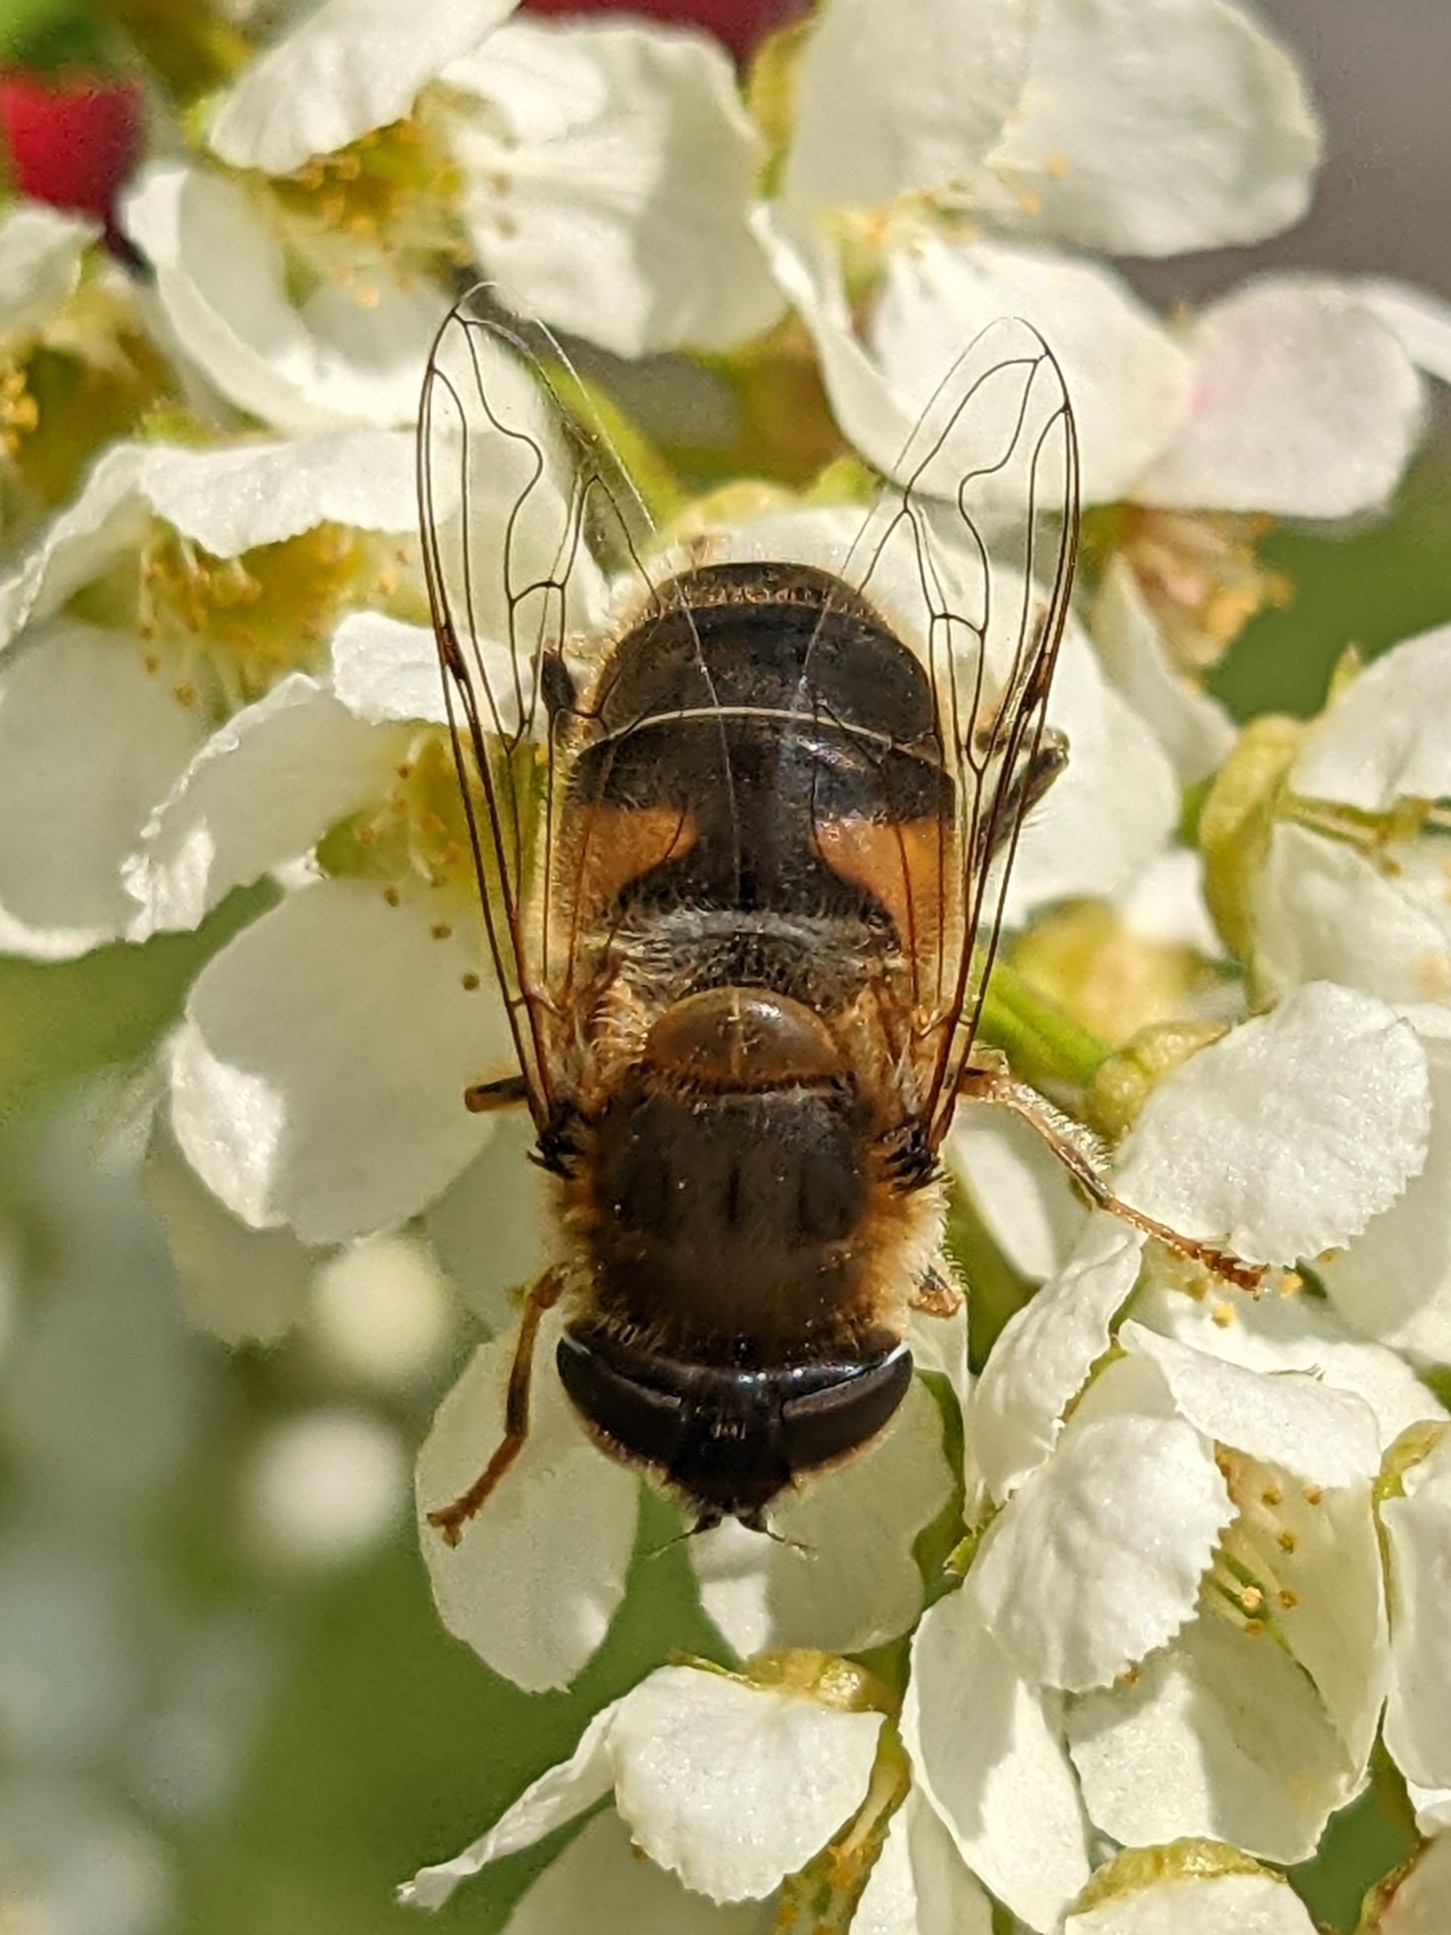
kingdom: Animalia
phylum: Arthropoda
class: Insecta
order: Diptera
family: Syrphidae
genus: Eristalis
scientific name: Eristalis pertinax
